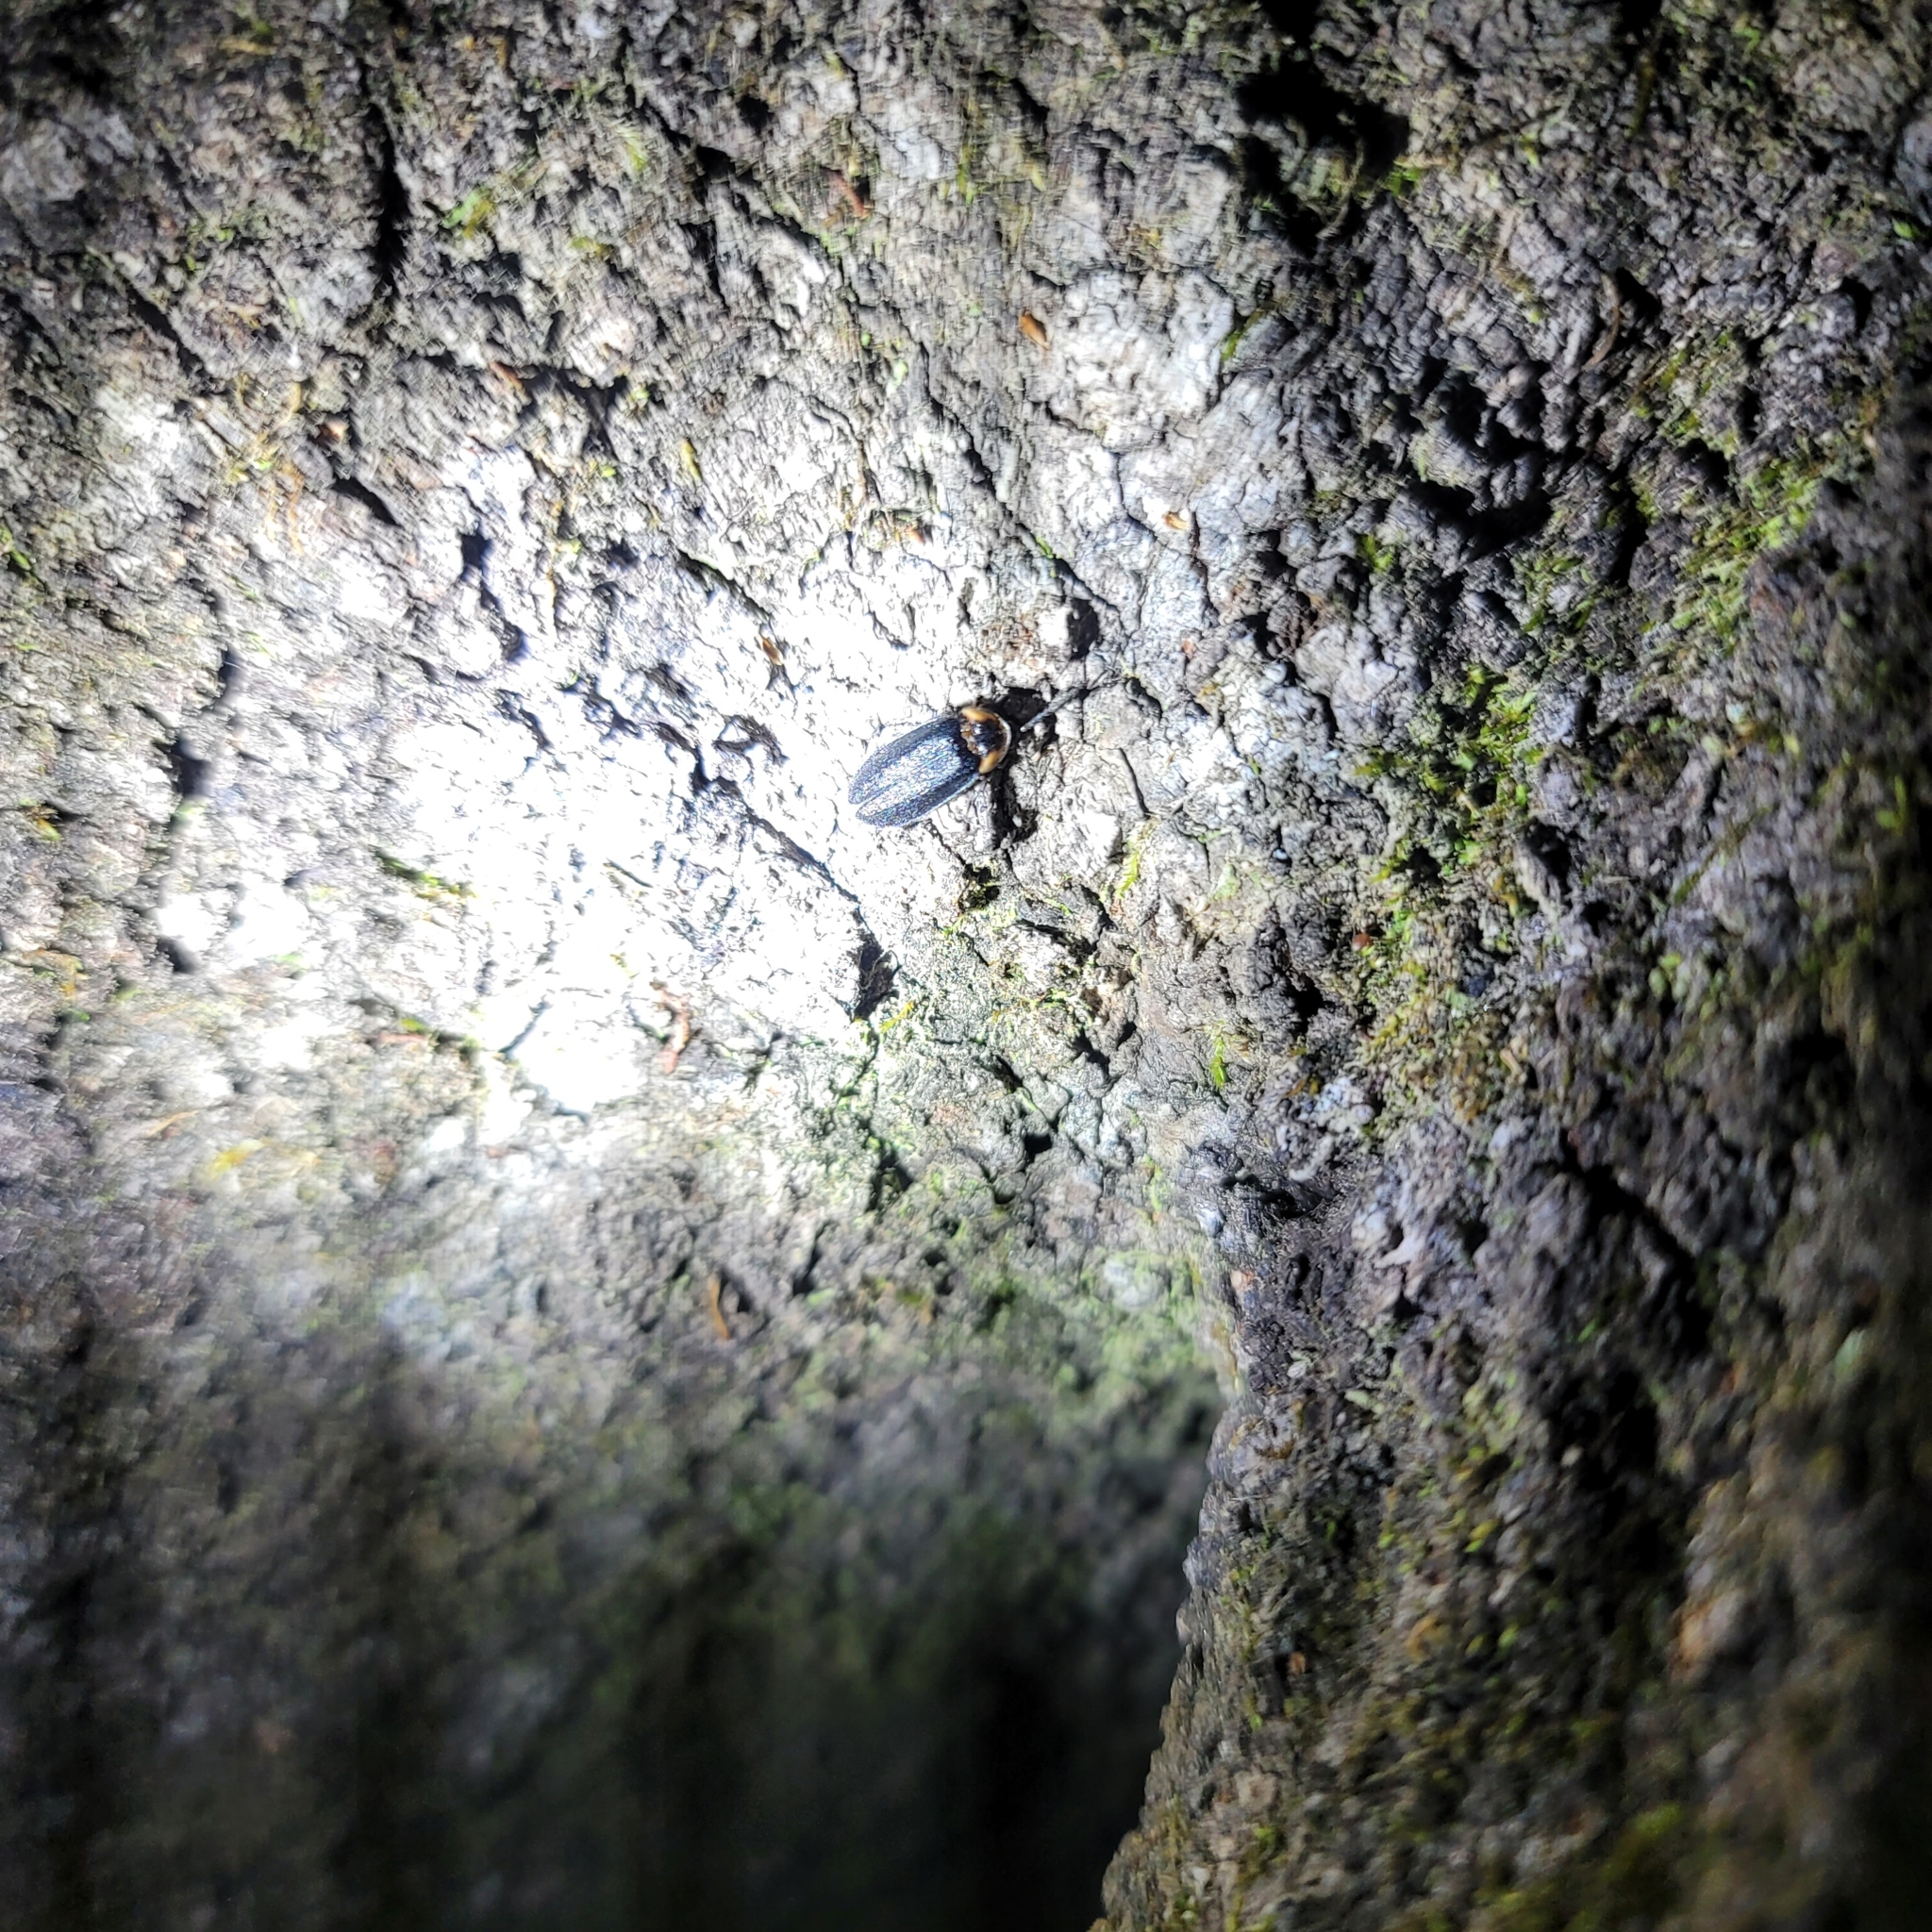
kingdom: Animalia
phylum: Arthropoda
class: Insecta
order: Coleoptera
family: Lampyridae
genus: Pollaclasis
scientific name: Pollaclasis bifaria
